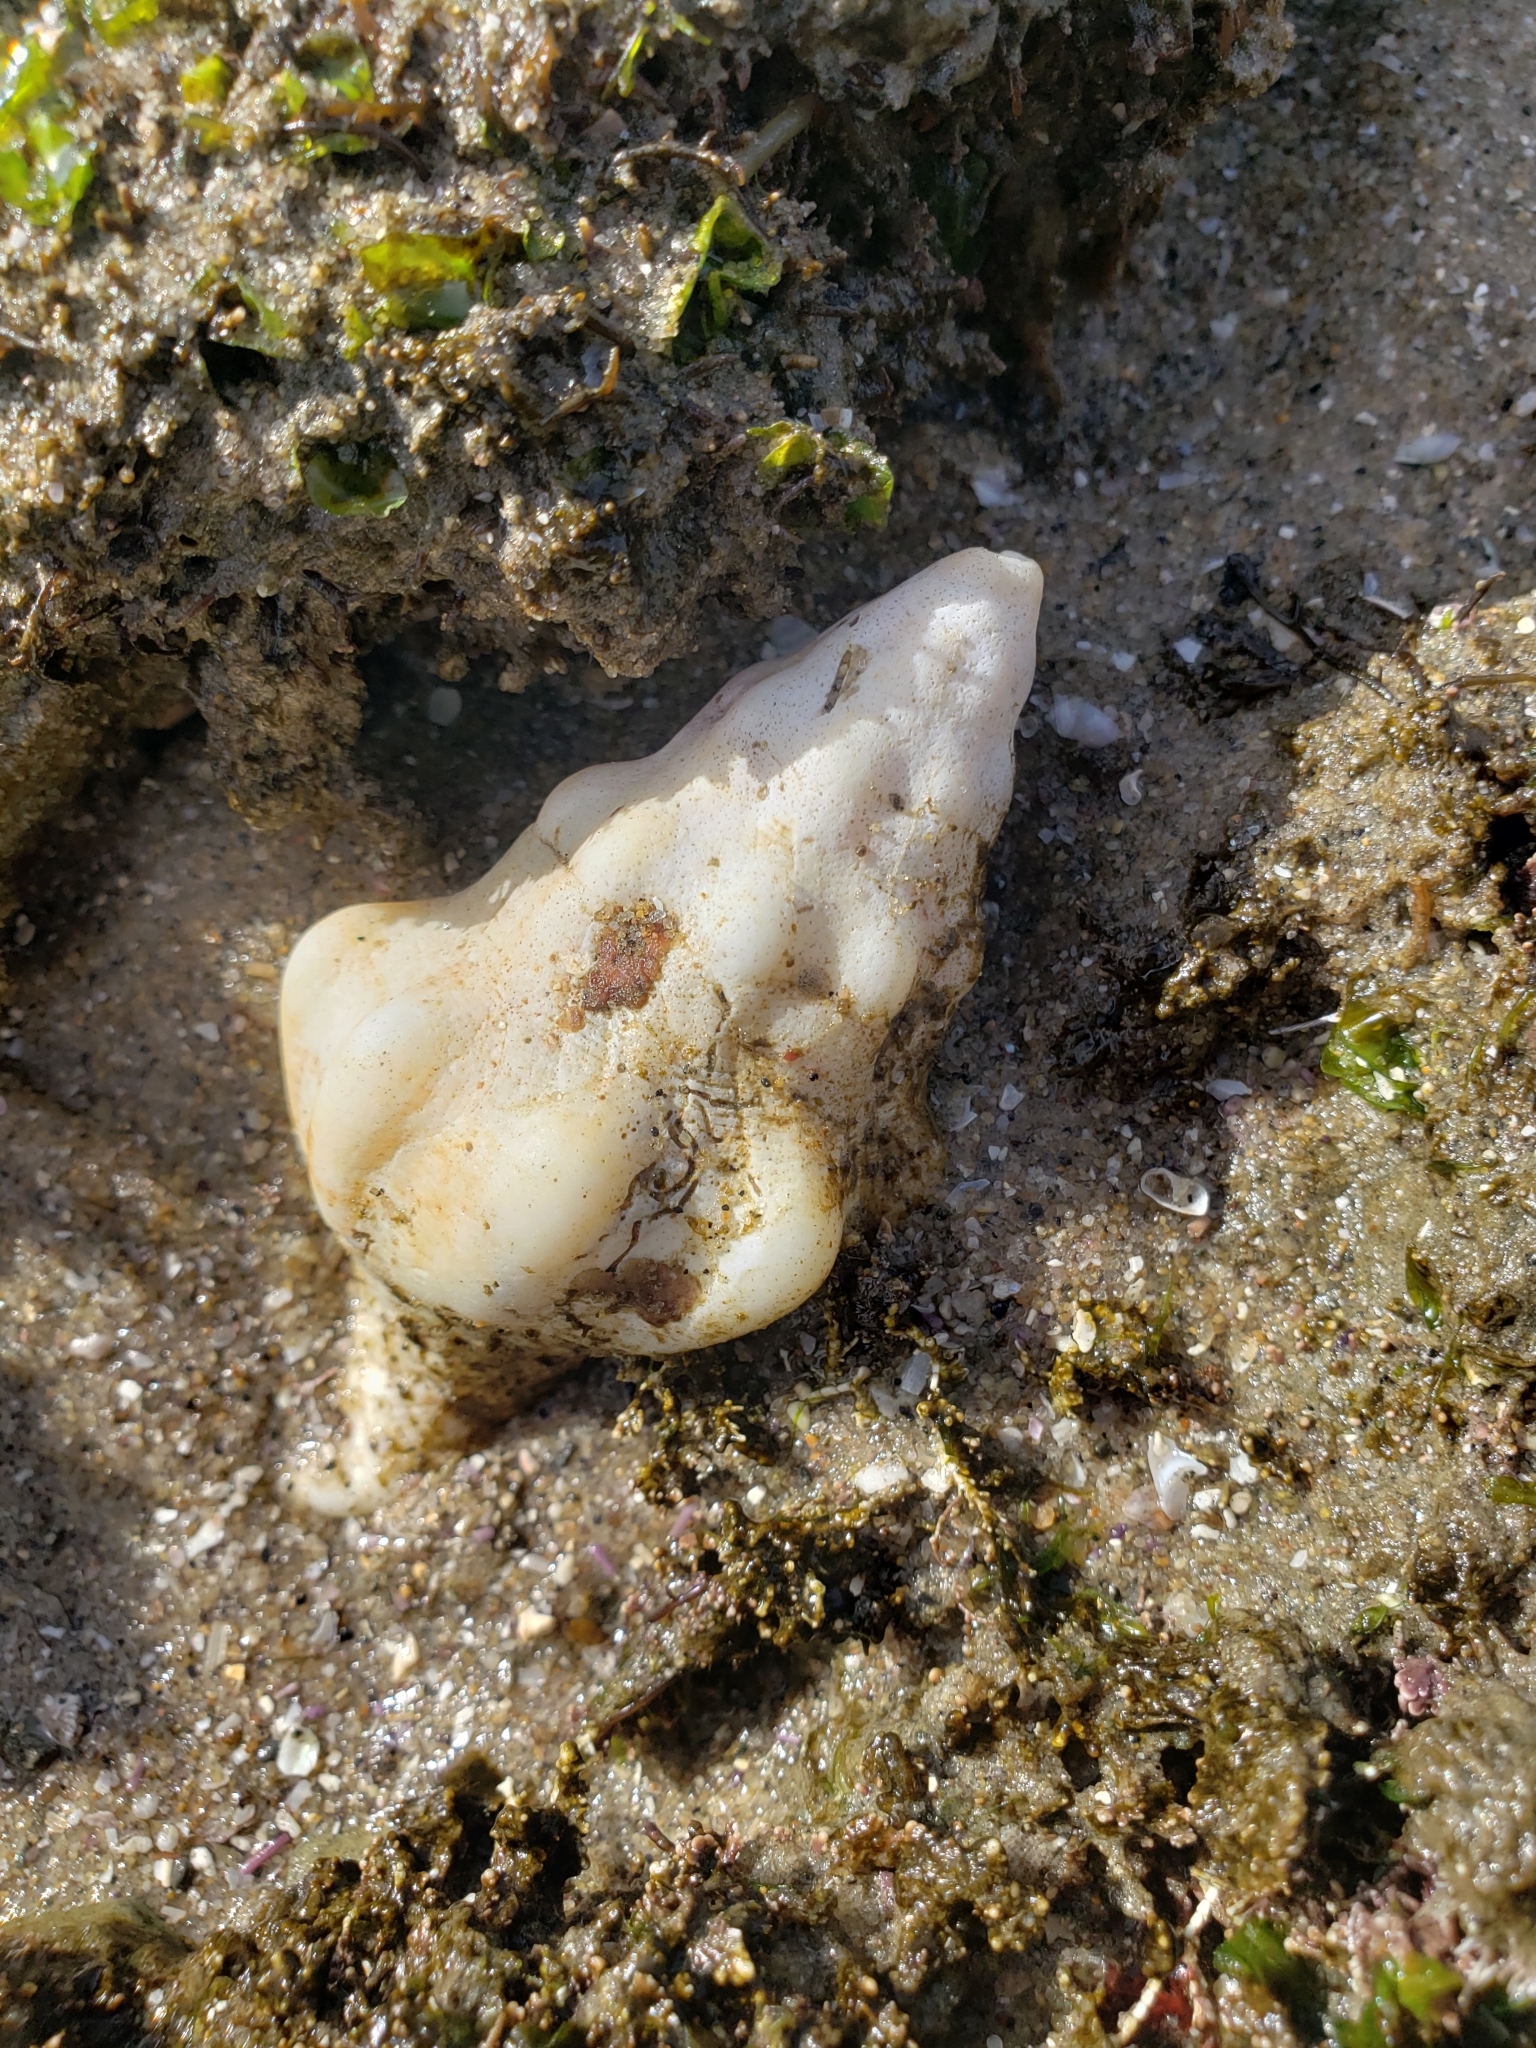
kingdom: Animalia
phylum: Mollusca
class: Gastropoda
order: Neogastropoda
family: Austrosiphonidae
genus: Kelletia
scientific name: Kelletia kelletii
